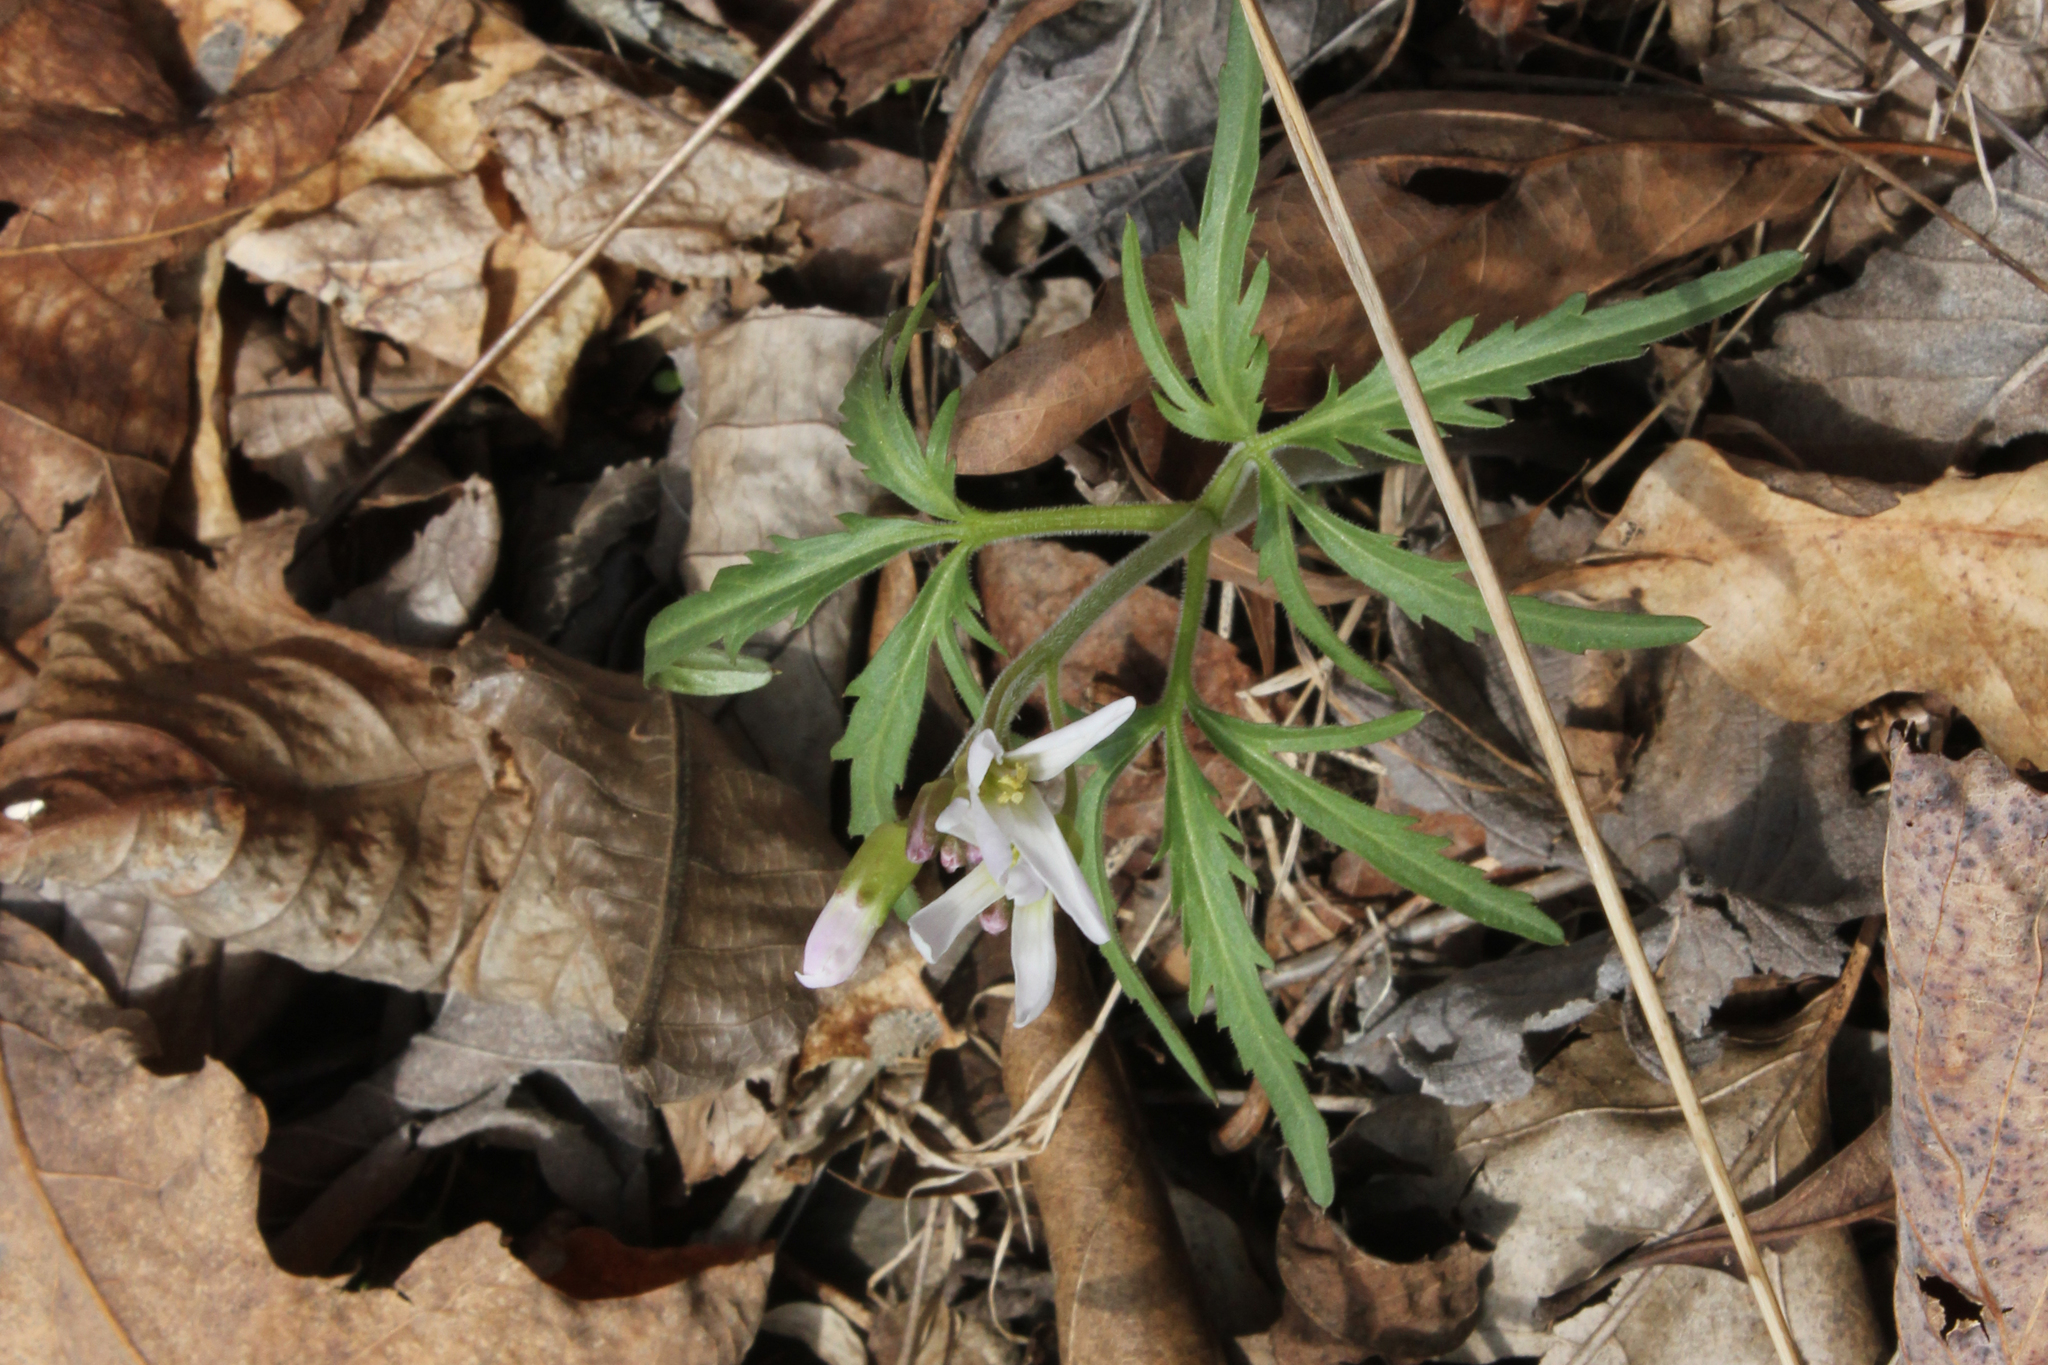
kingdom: Plantae
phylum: Tracheophyta
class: Magnoliopsida
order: Brassicales
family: Brassicaceae
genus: Cardamine
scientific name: Cardamine concatenata
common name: Cut-leaf toothcup
